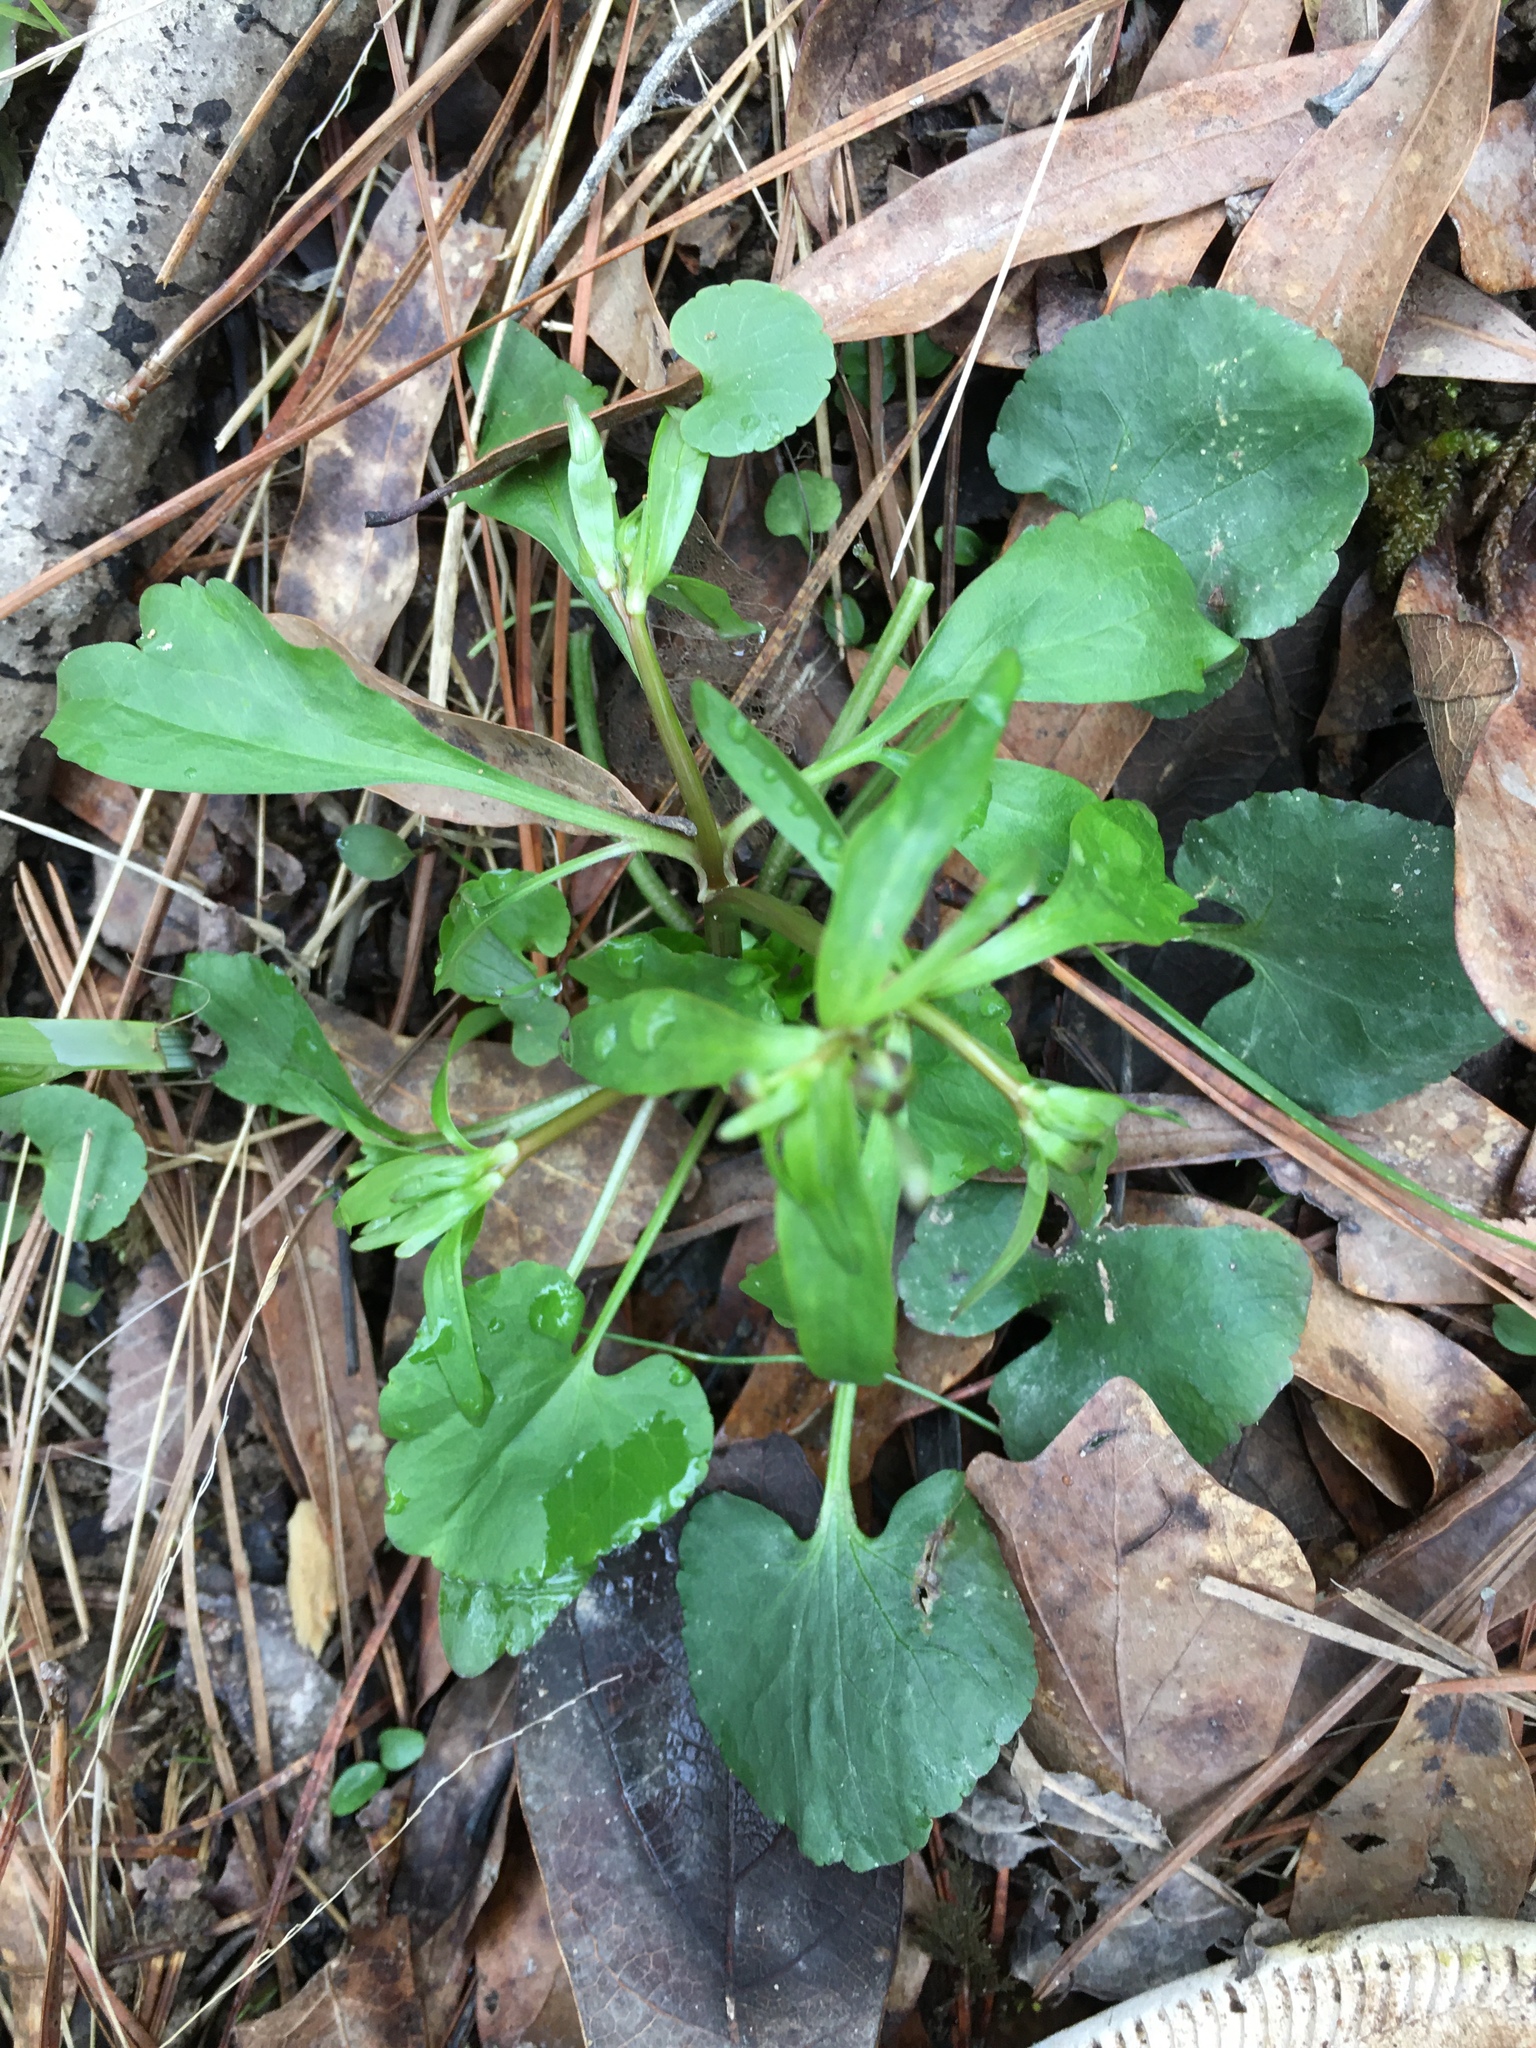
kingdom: Plantae
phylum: Tracheophyta
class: Magnoliopsida
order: Ranunculales
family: Ranunculaceae
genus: Ranunculus
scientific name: Ranunculus abortivus
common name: Early wood buttercup
